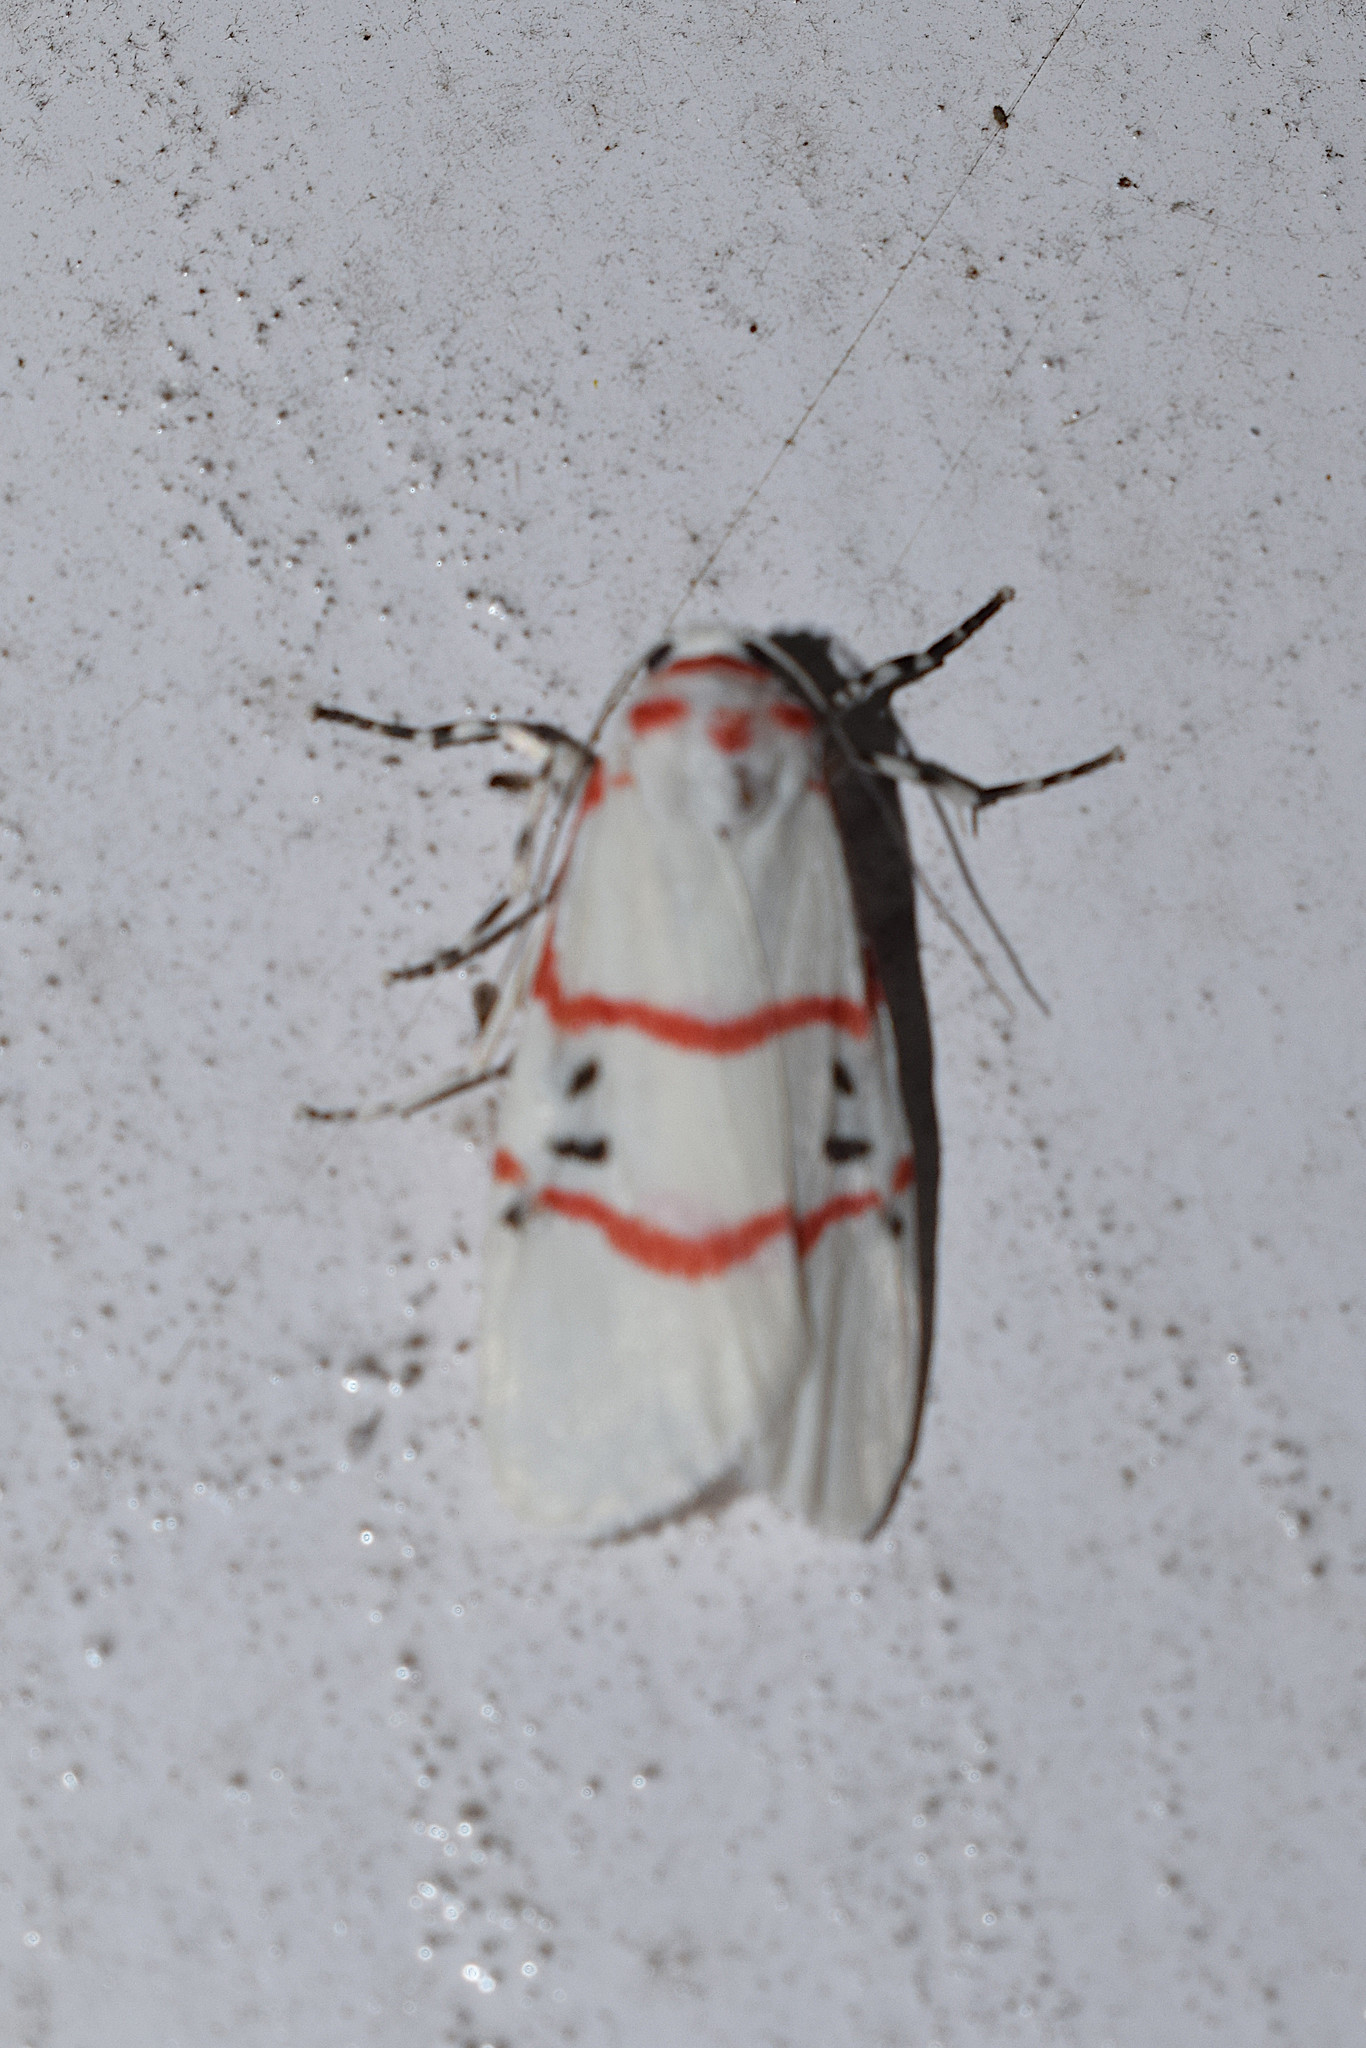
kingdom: Animalia
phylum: Arthropoda
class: Insecta
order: Lepidoptera
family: Erebidae
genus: Cyana
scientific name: Cyana signa
